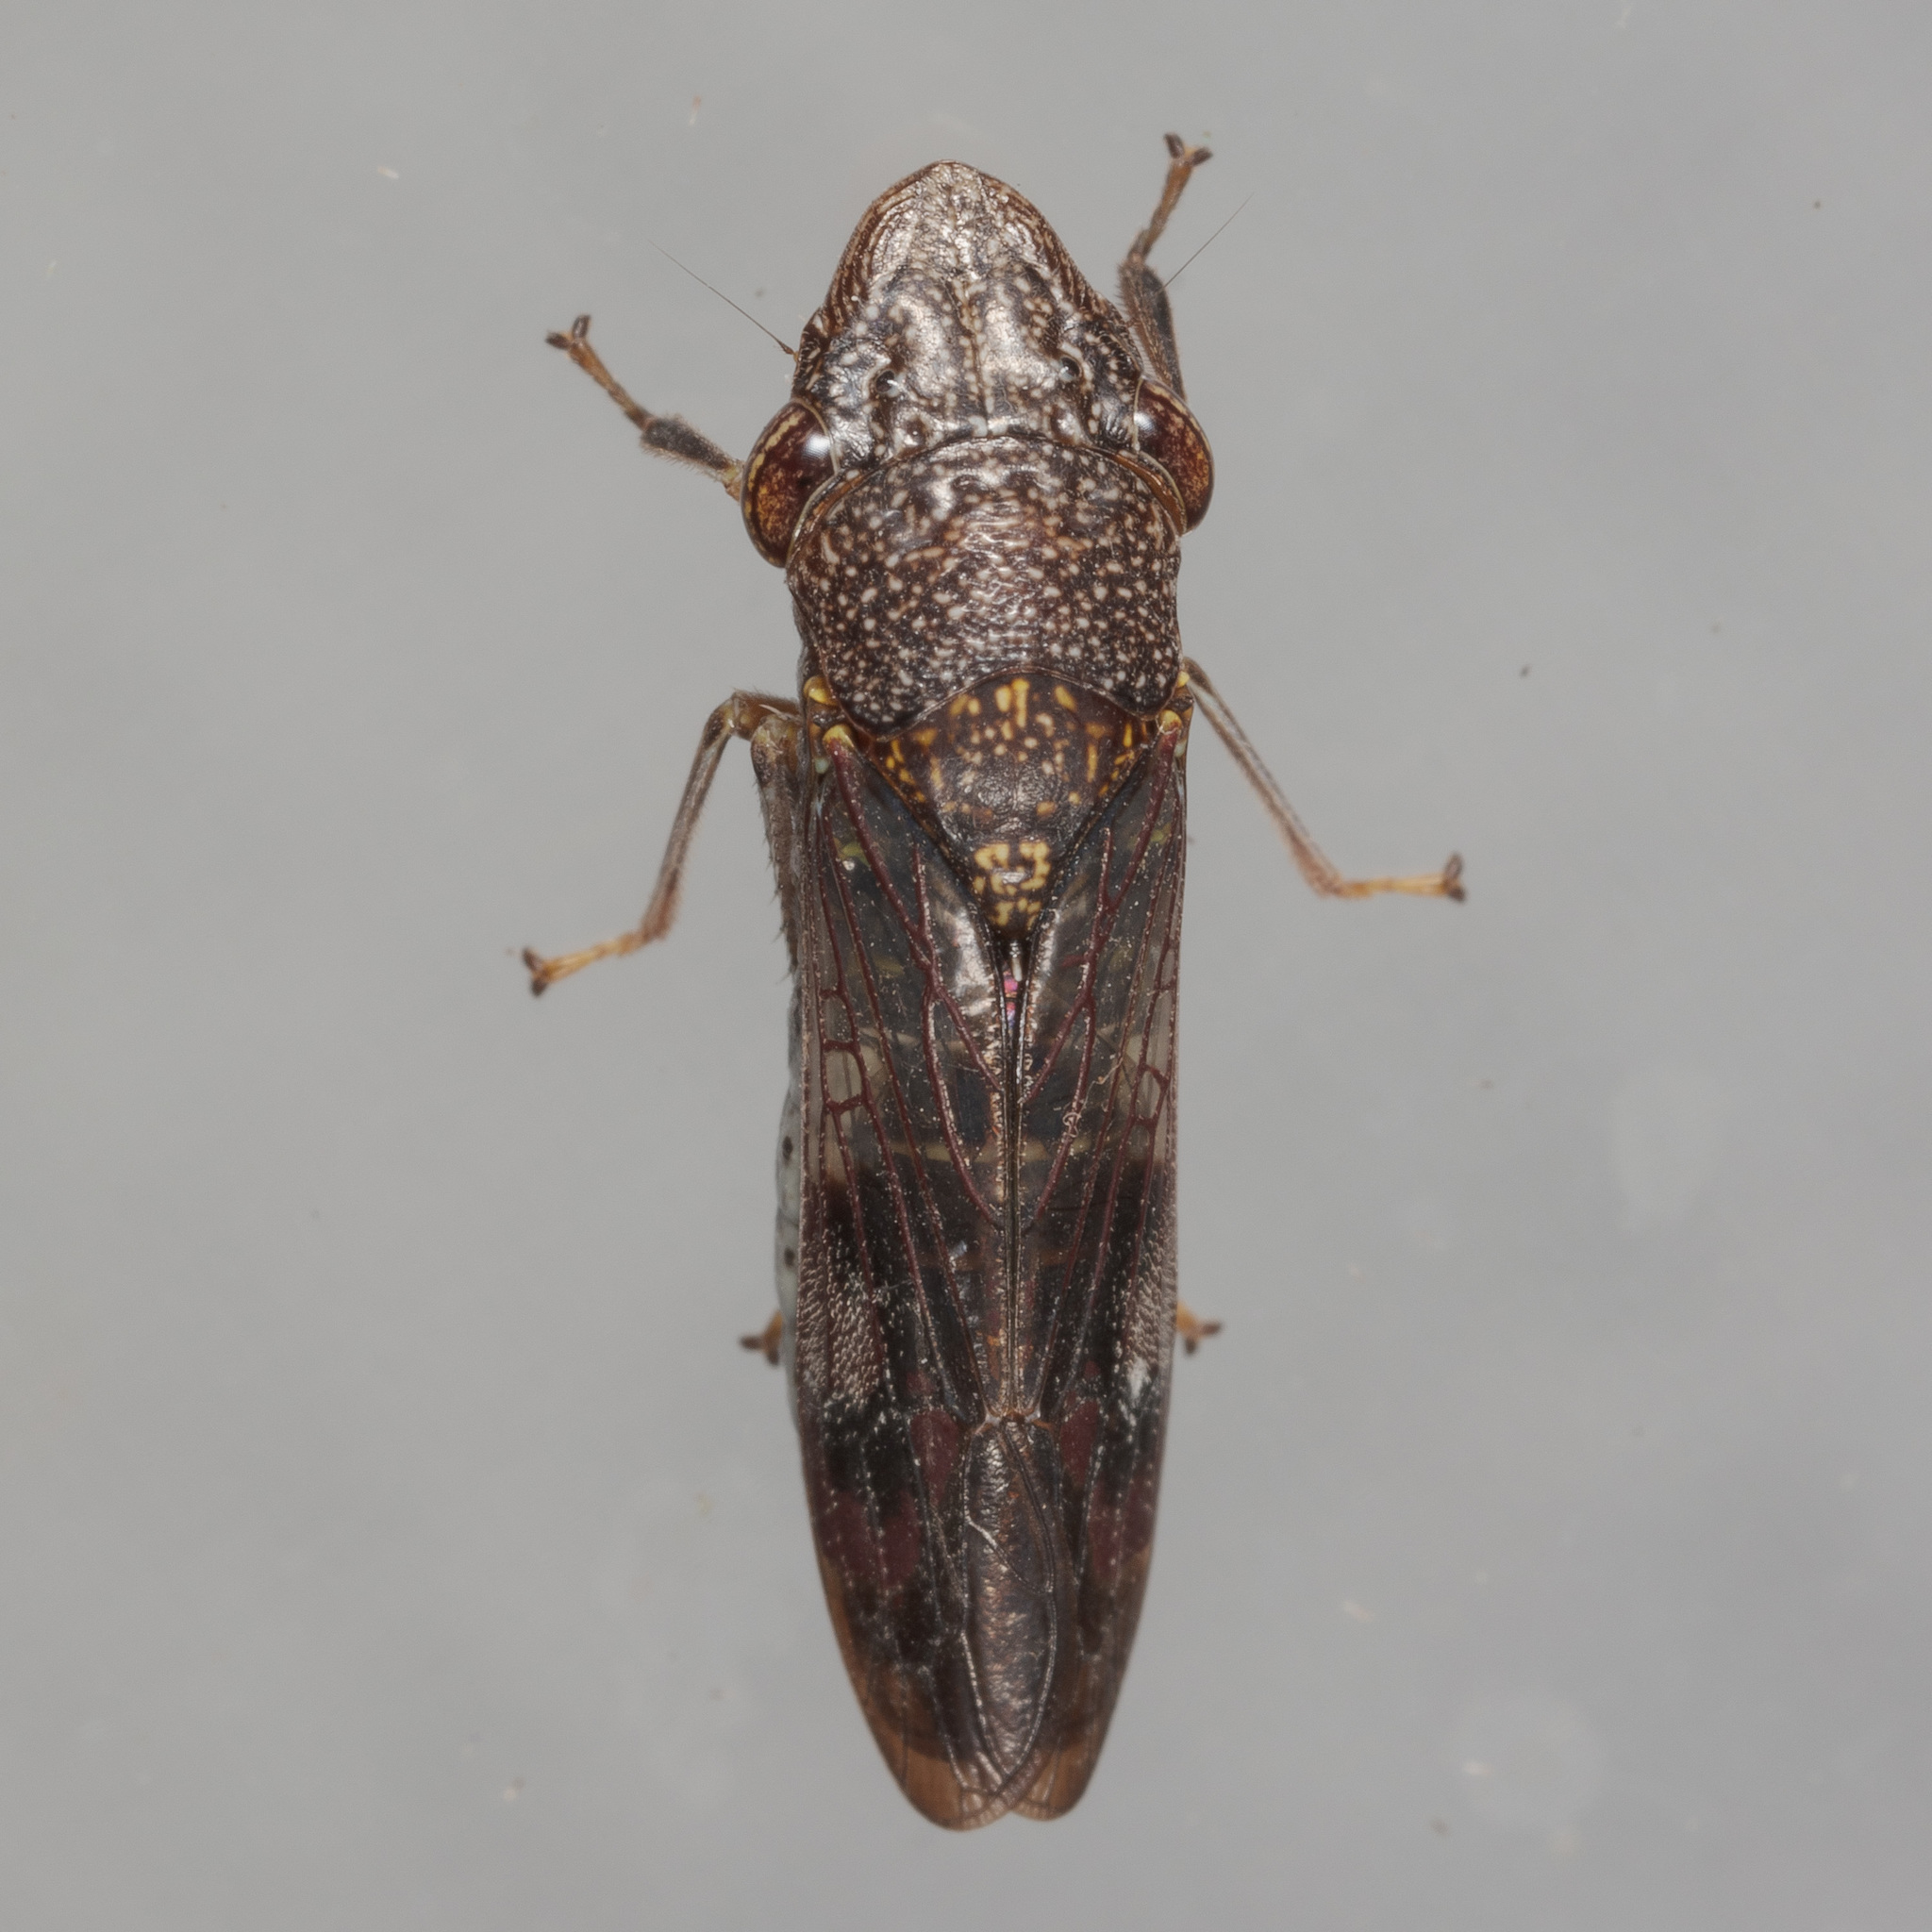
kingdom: Animalia
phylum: Arthropoda
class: Insecta
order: Hemiptera
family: Cicadellidae
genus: Homalodisca
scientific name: Homalodisca vitripennis
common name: Glassy-winged sharpshooter
